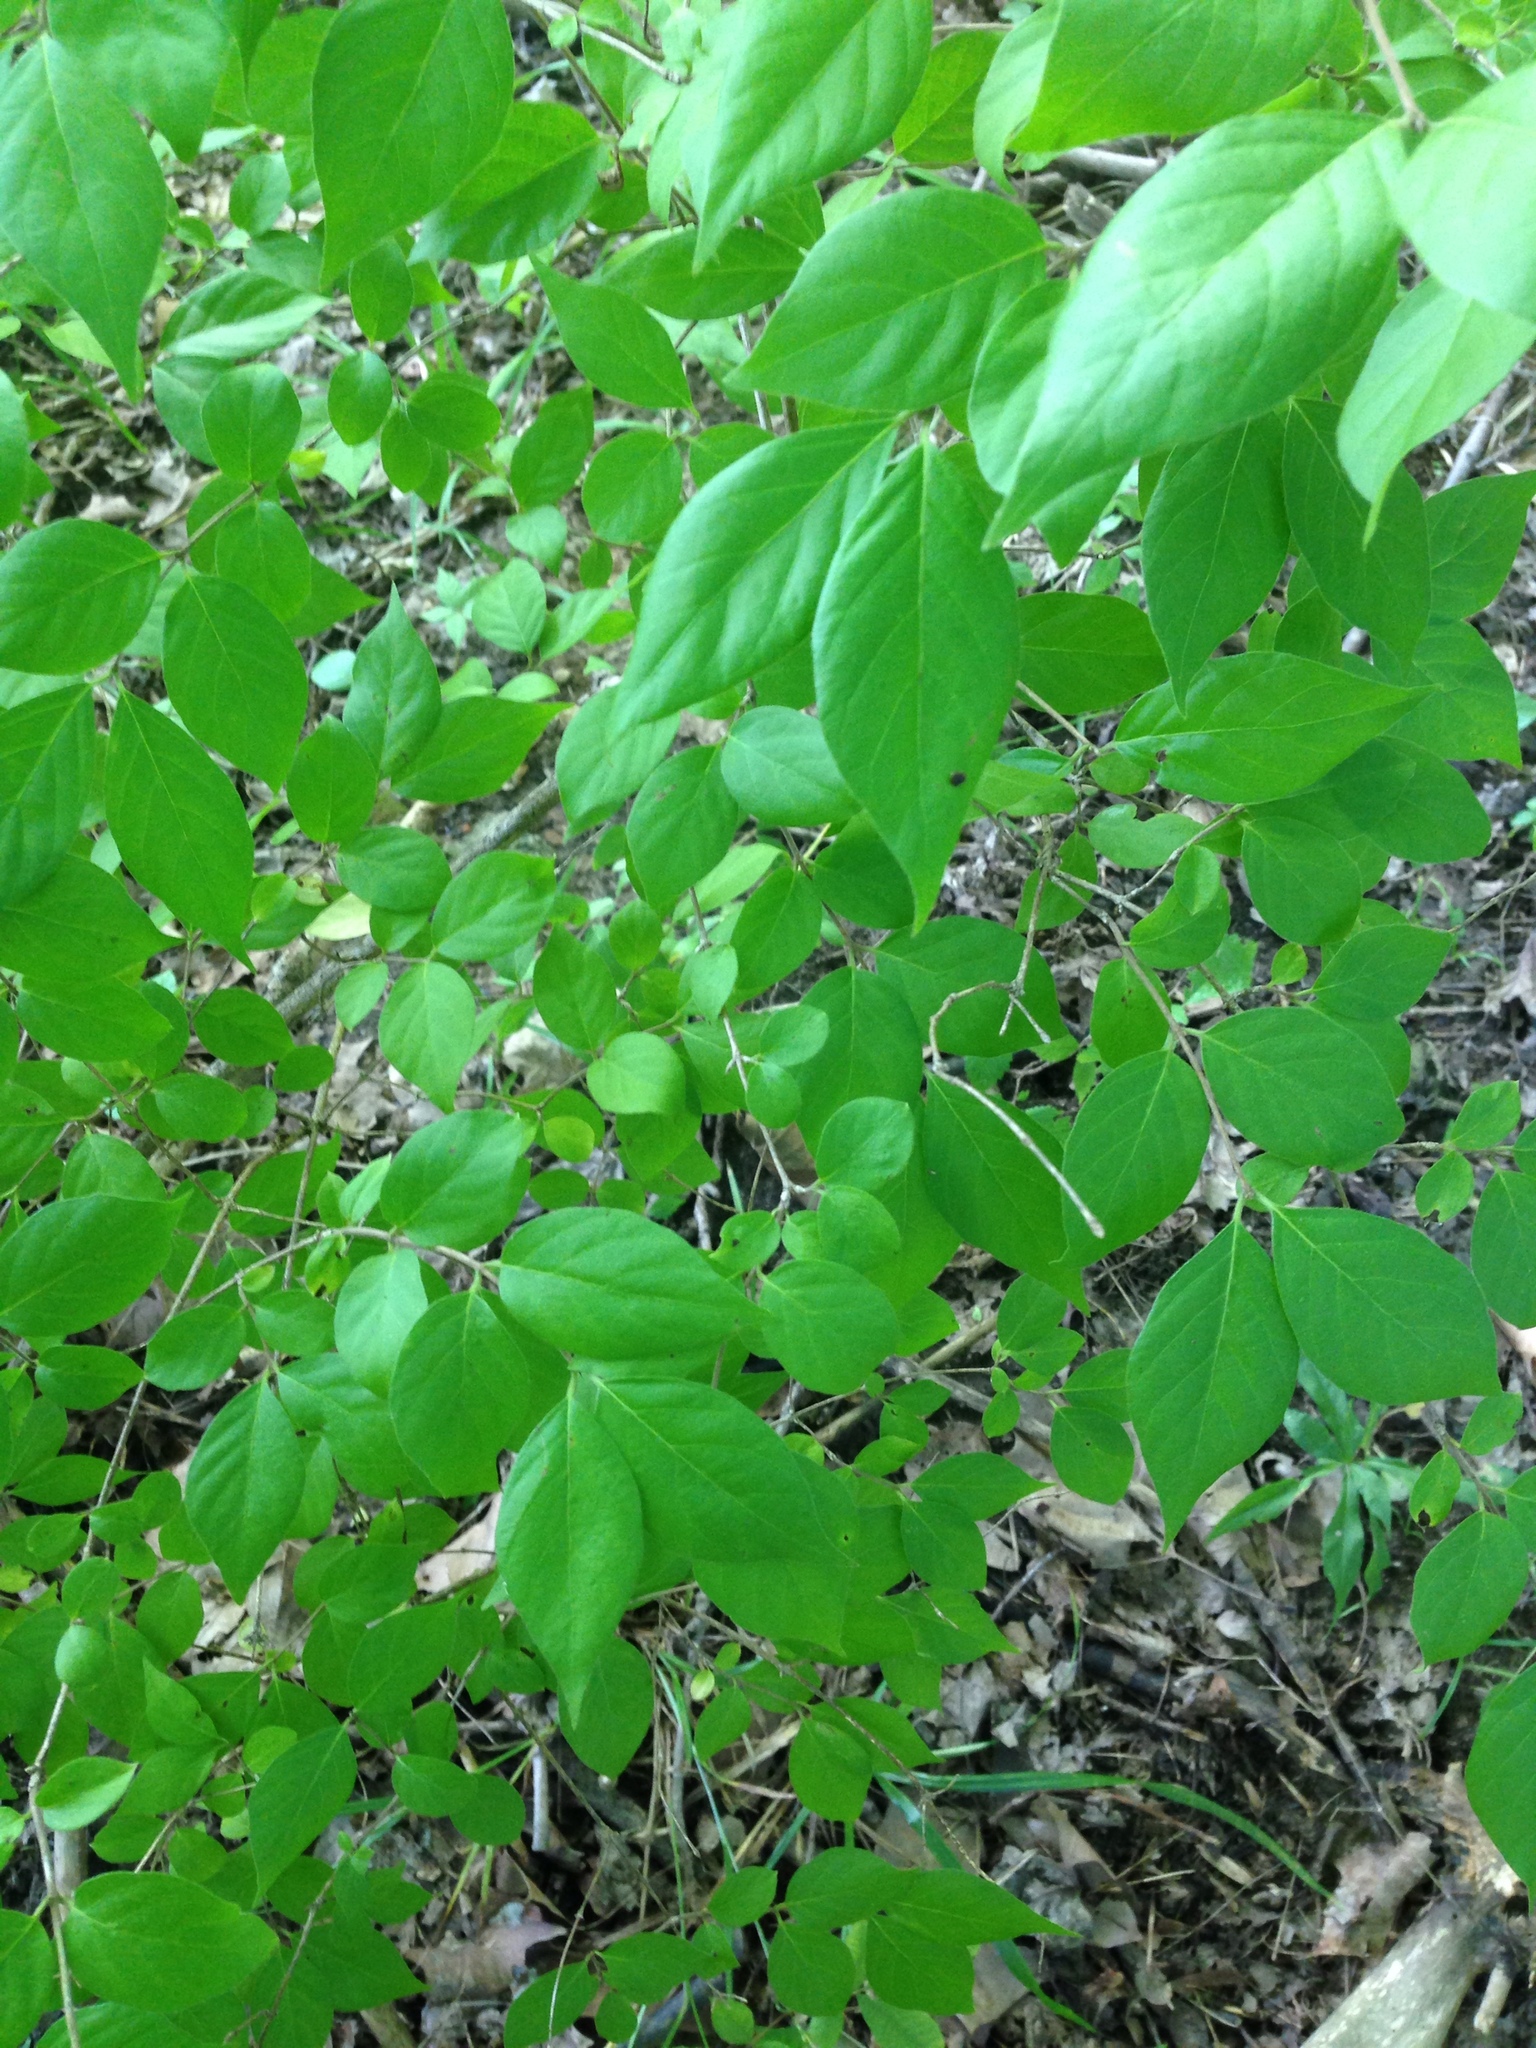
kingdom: Plantae
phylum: Tracheophyta
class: Magnoliopsida
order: Dipsacales
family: Caprifoliaceae
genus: Lonicera
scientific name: Lonicera maackii
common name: Amur honeysuckle
